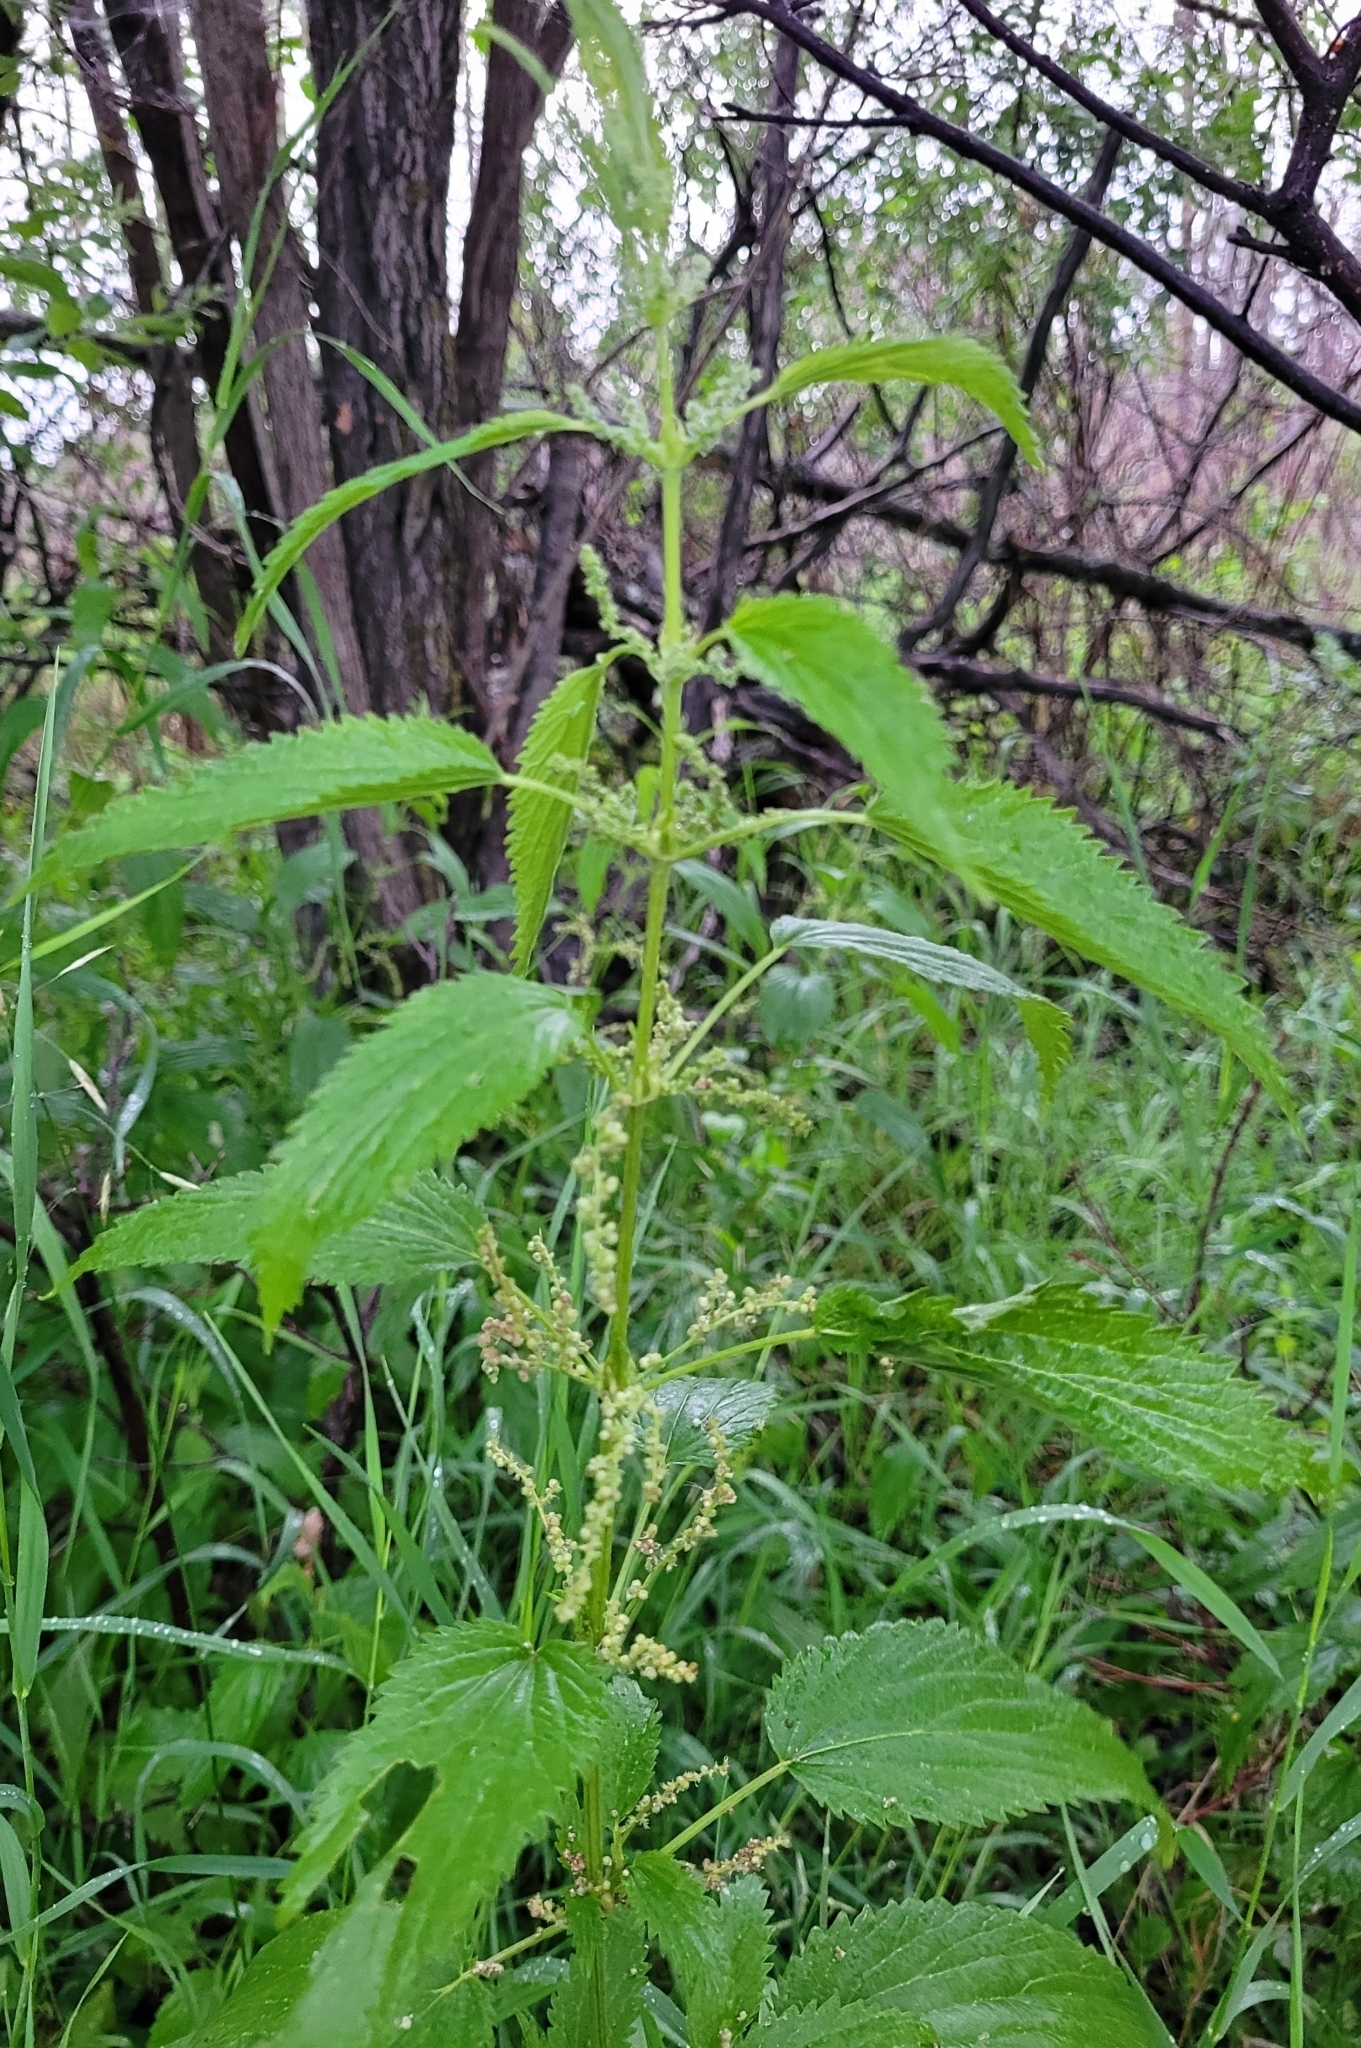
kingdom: Plantae
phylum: Tracheophyta
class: Magnoliopsida
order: Rosales
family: Urticaceae
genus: Urtica
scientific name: Urtica gracilis
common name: Slender stinging nettle
